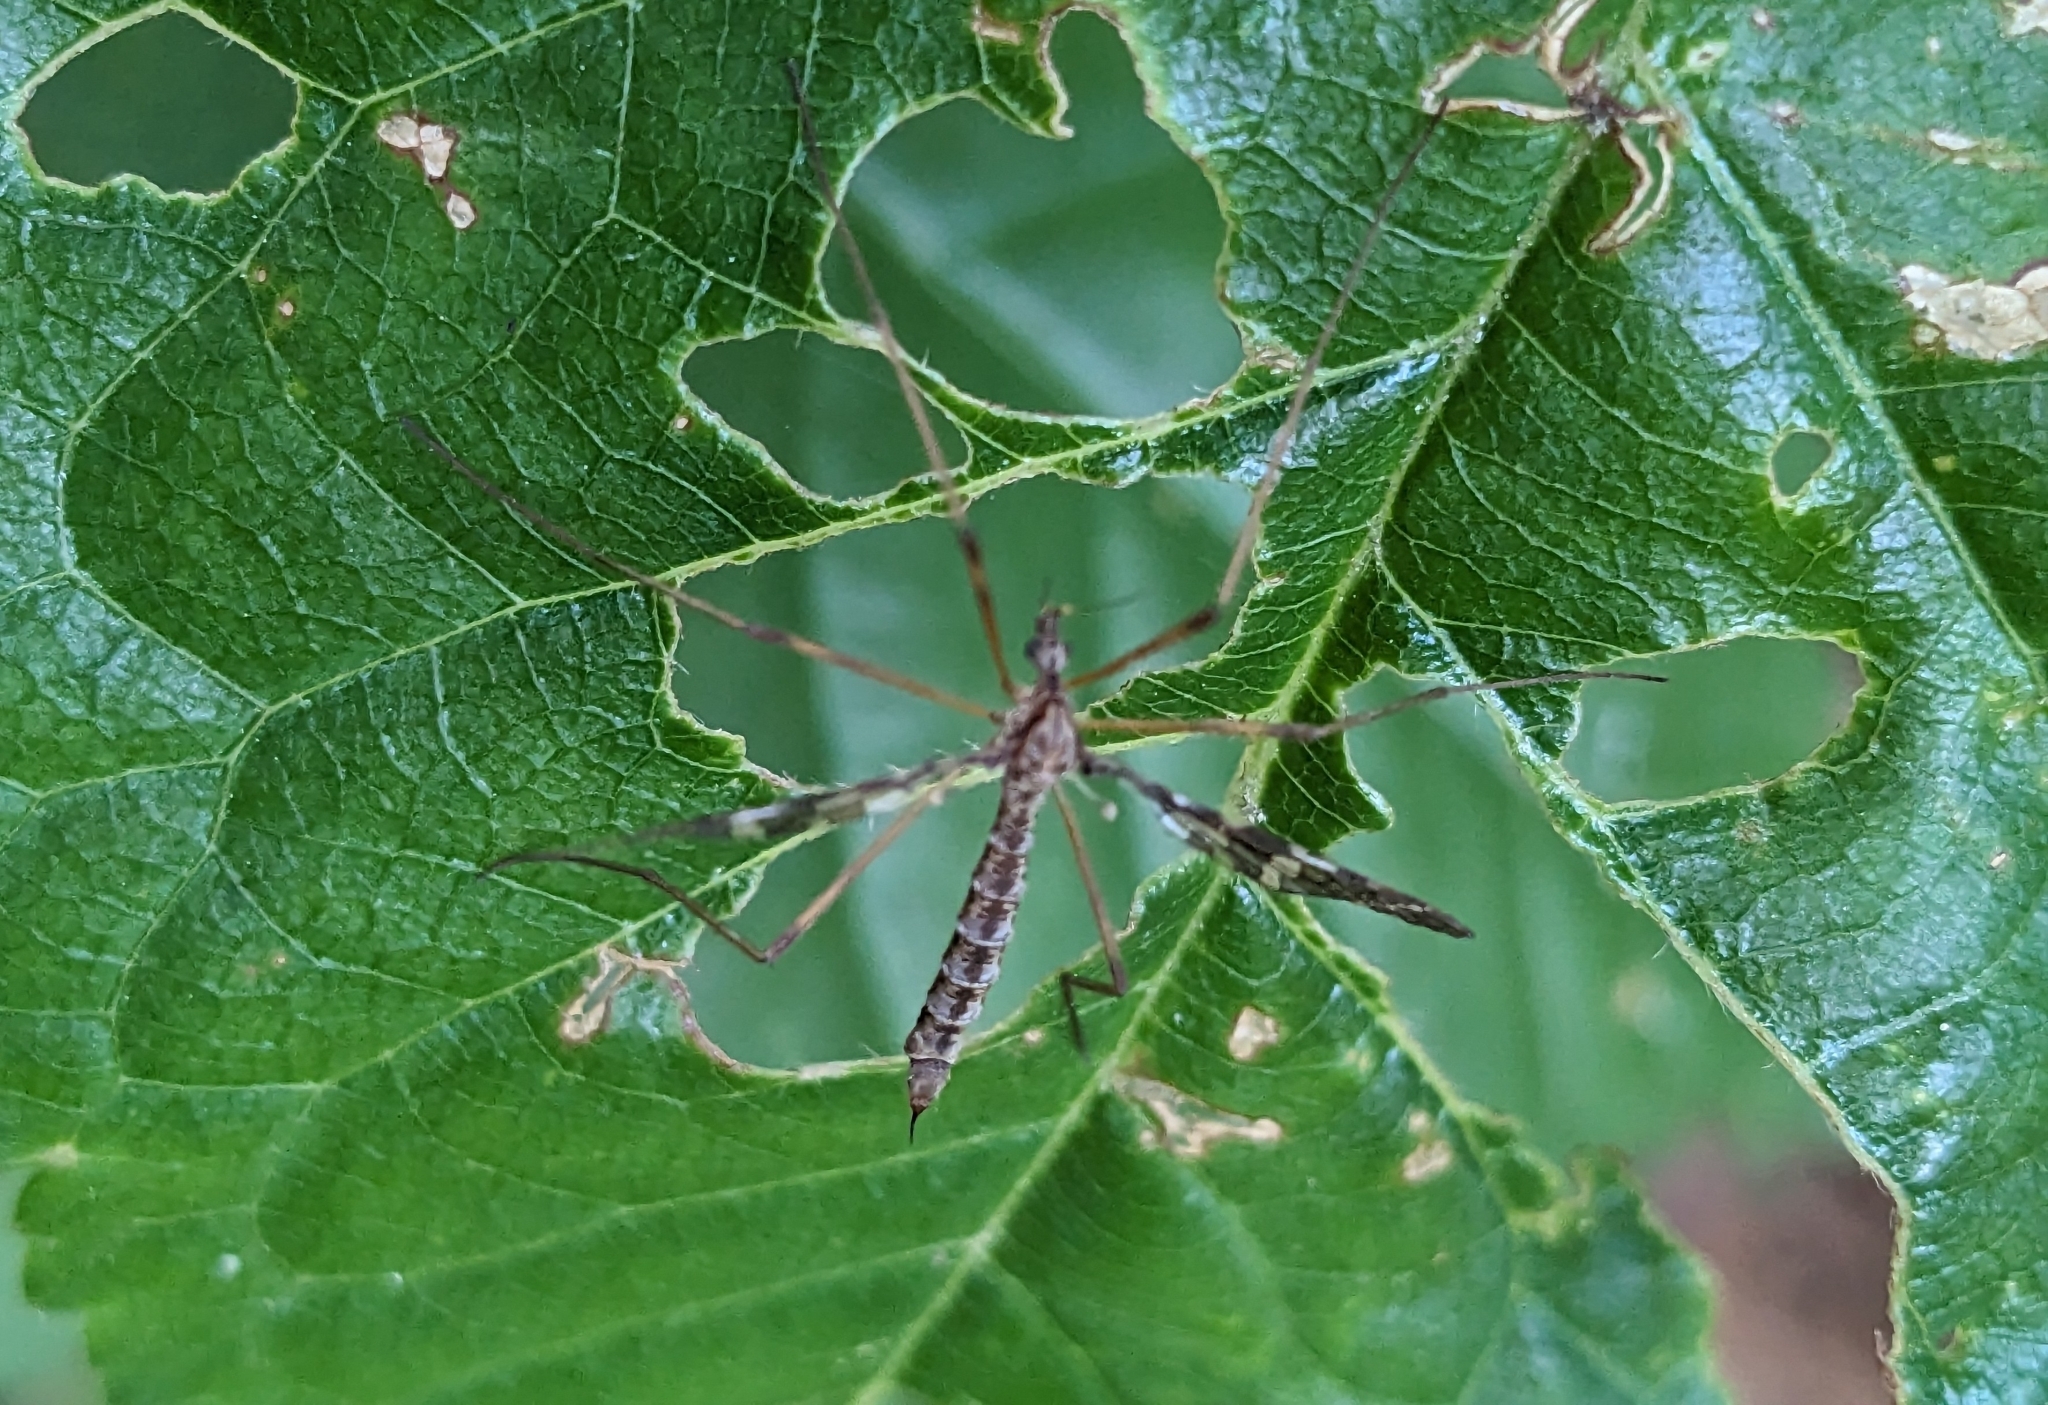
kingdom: Animalia
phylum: Arthropoda
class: Insecta
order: Diptera
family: Limoniidae
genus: Epiphragma
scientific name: Epiphragma fasciapenne
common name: Band-winged crane fly
